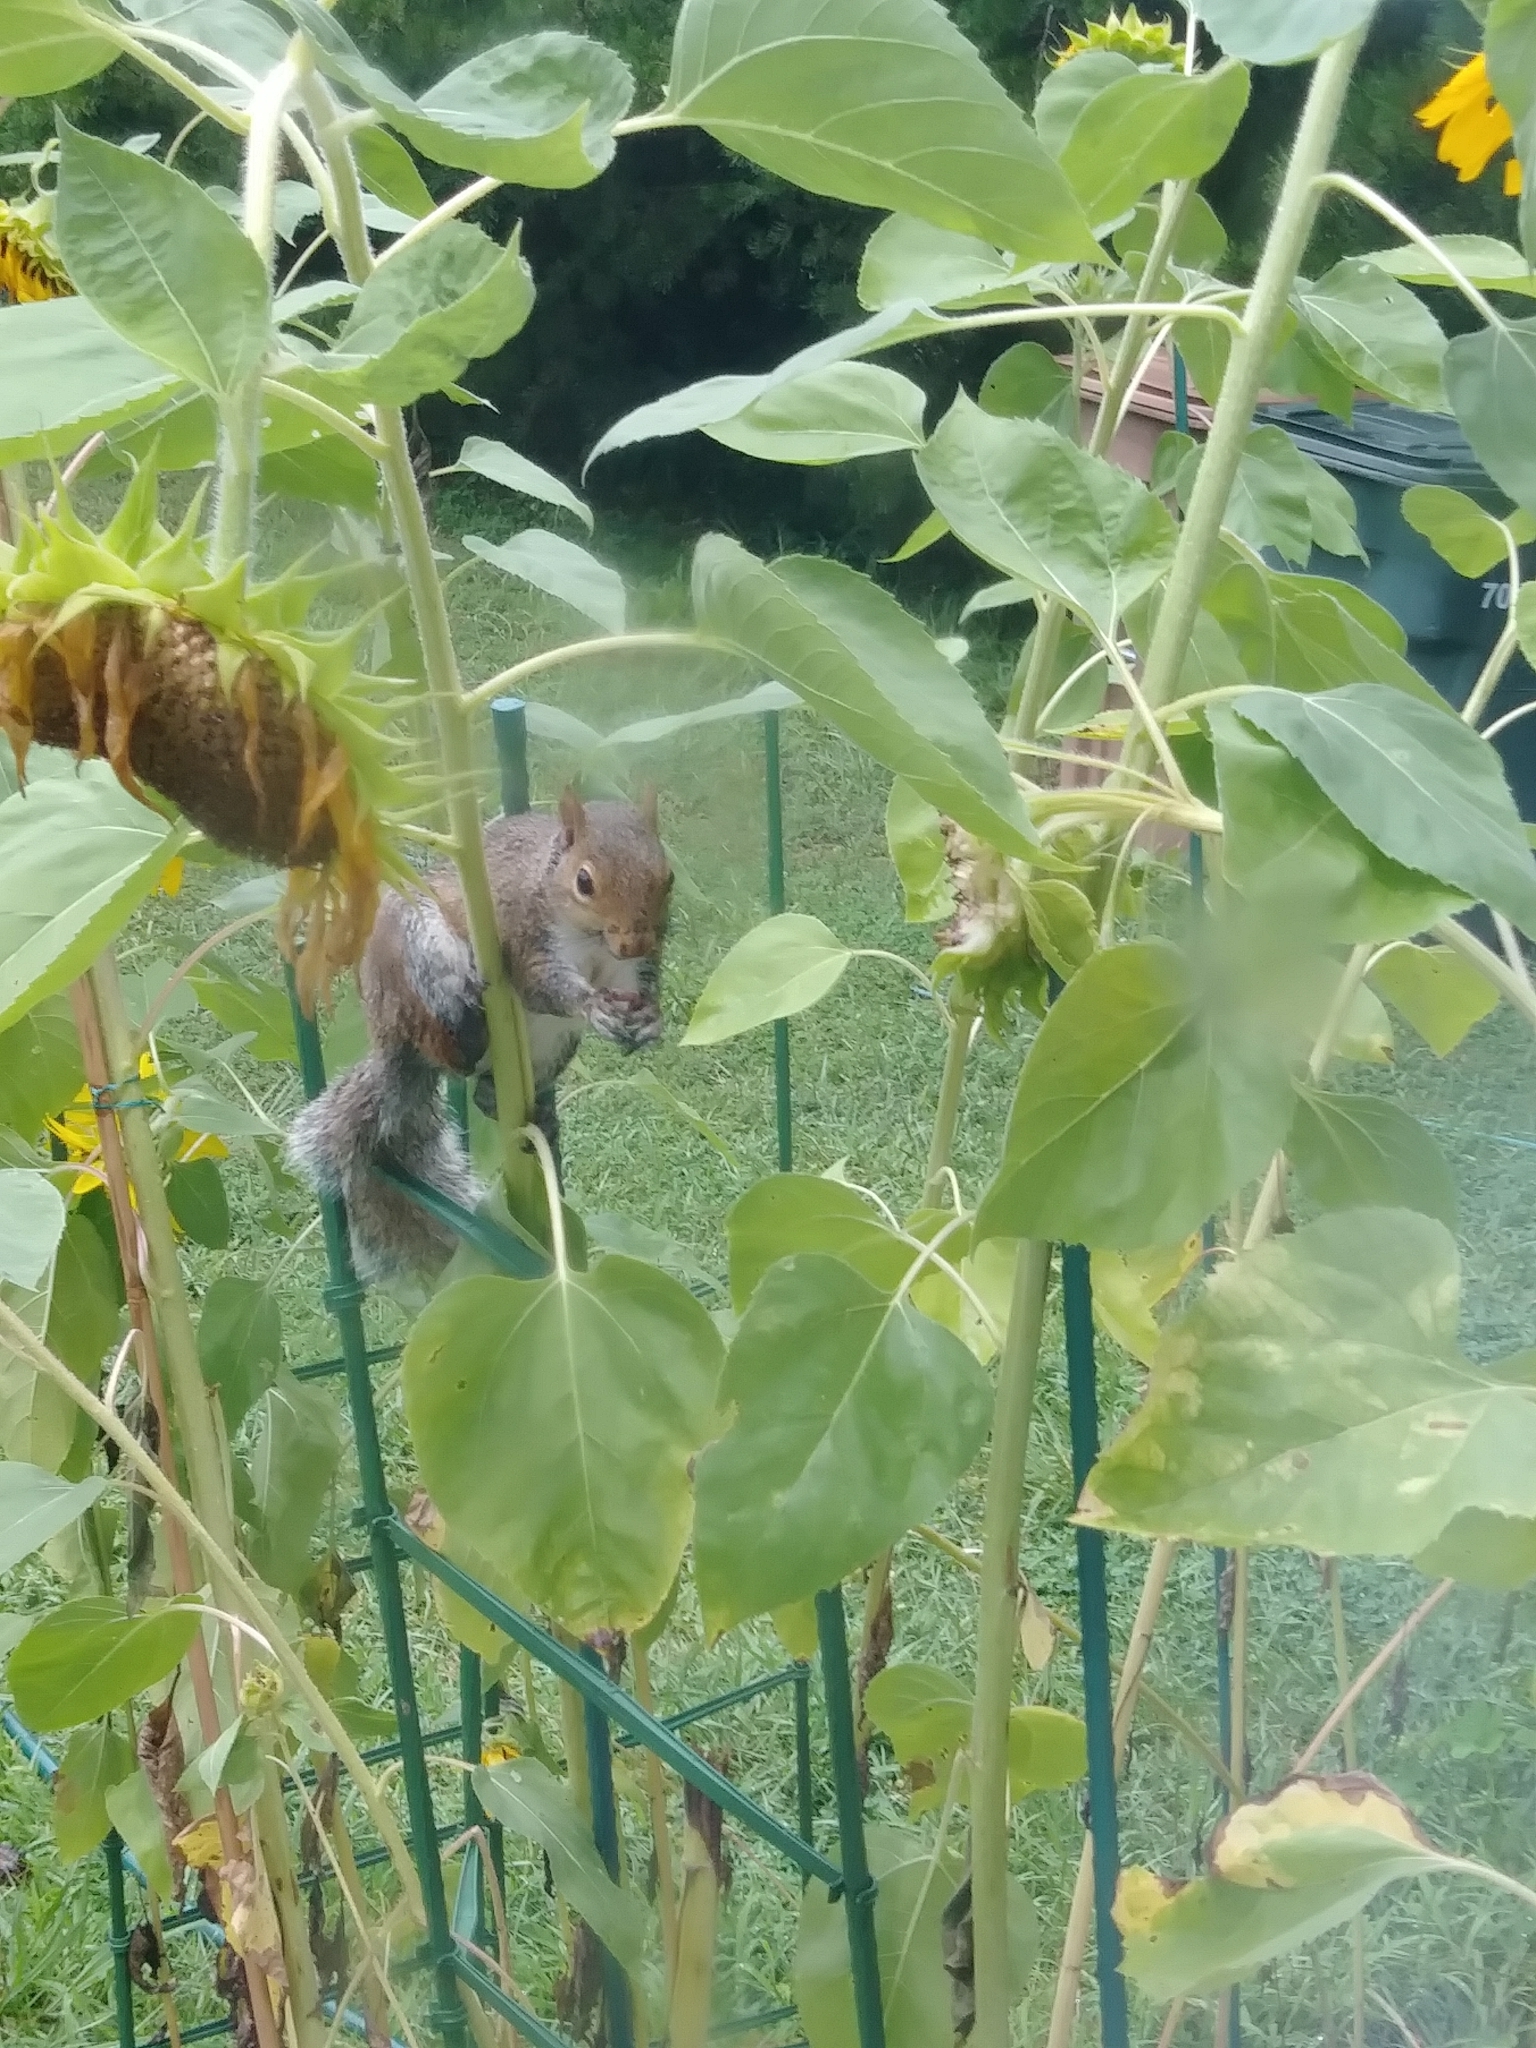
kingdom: Animalia
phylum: Chordata
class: Mammalia
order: Rodentia
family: Sciuridae
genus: Sciurus
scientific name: Sciurus carolinensis
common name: Eastern gray squirrel
